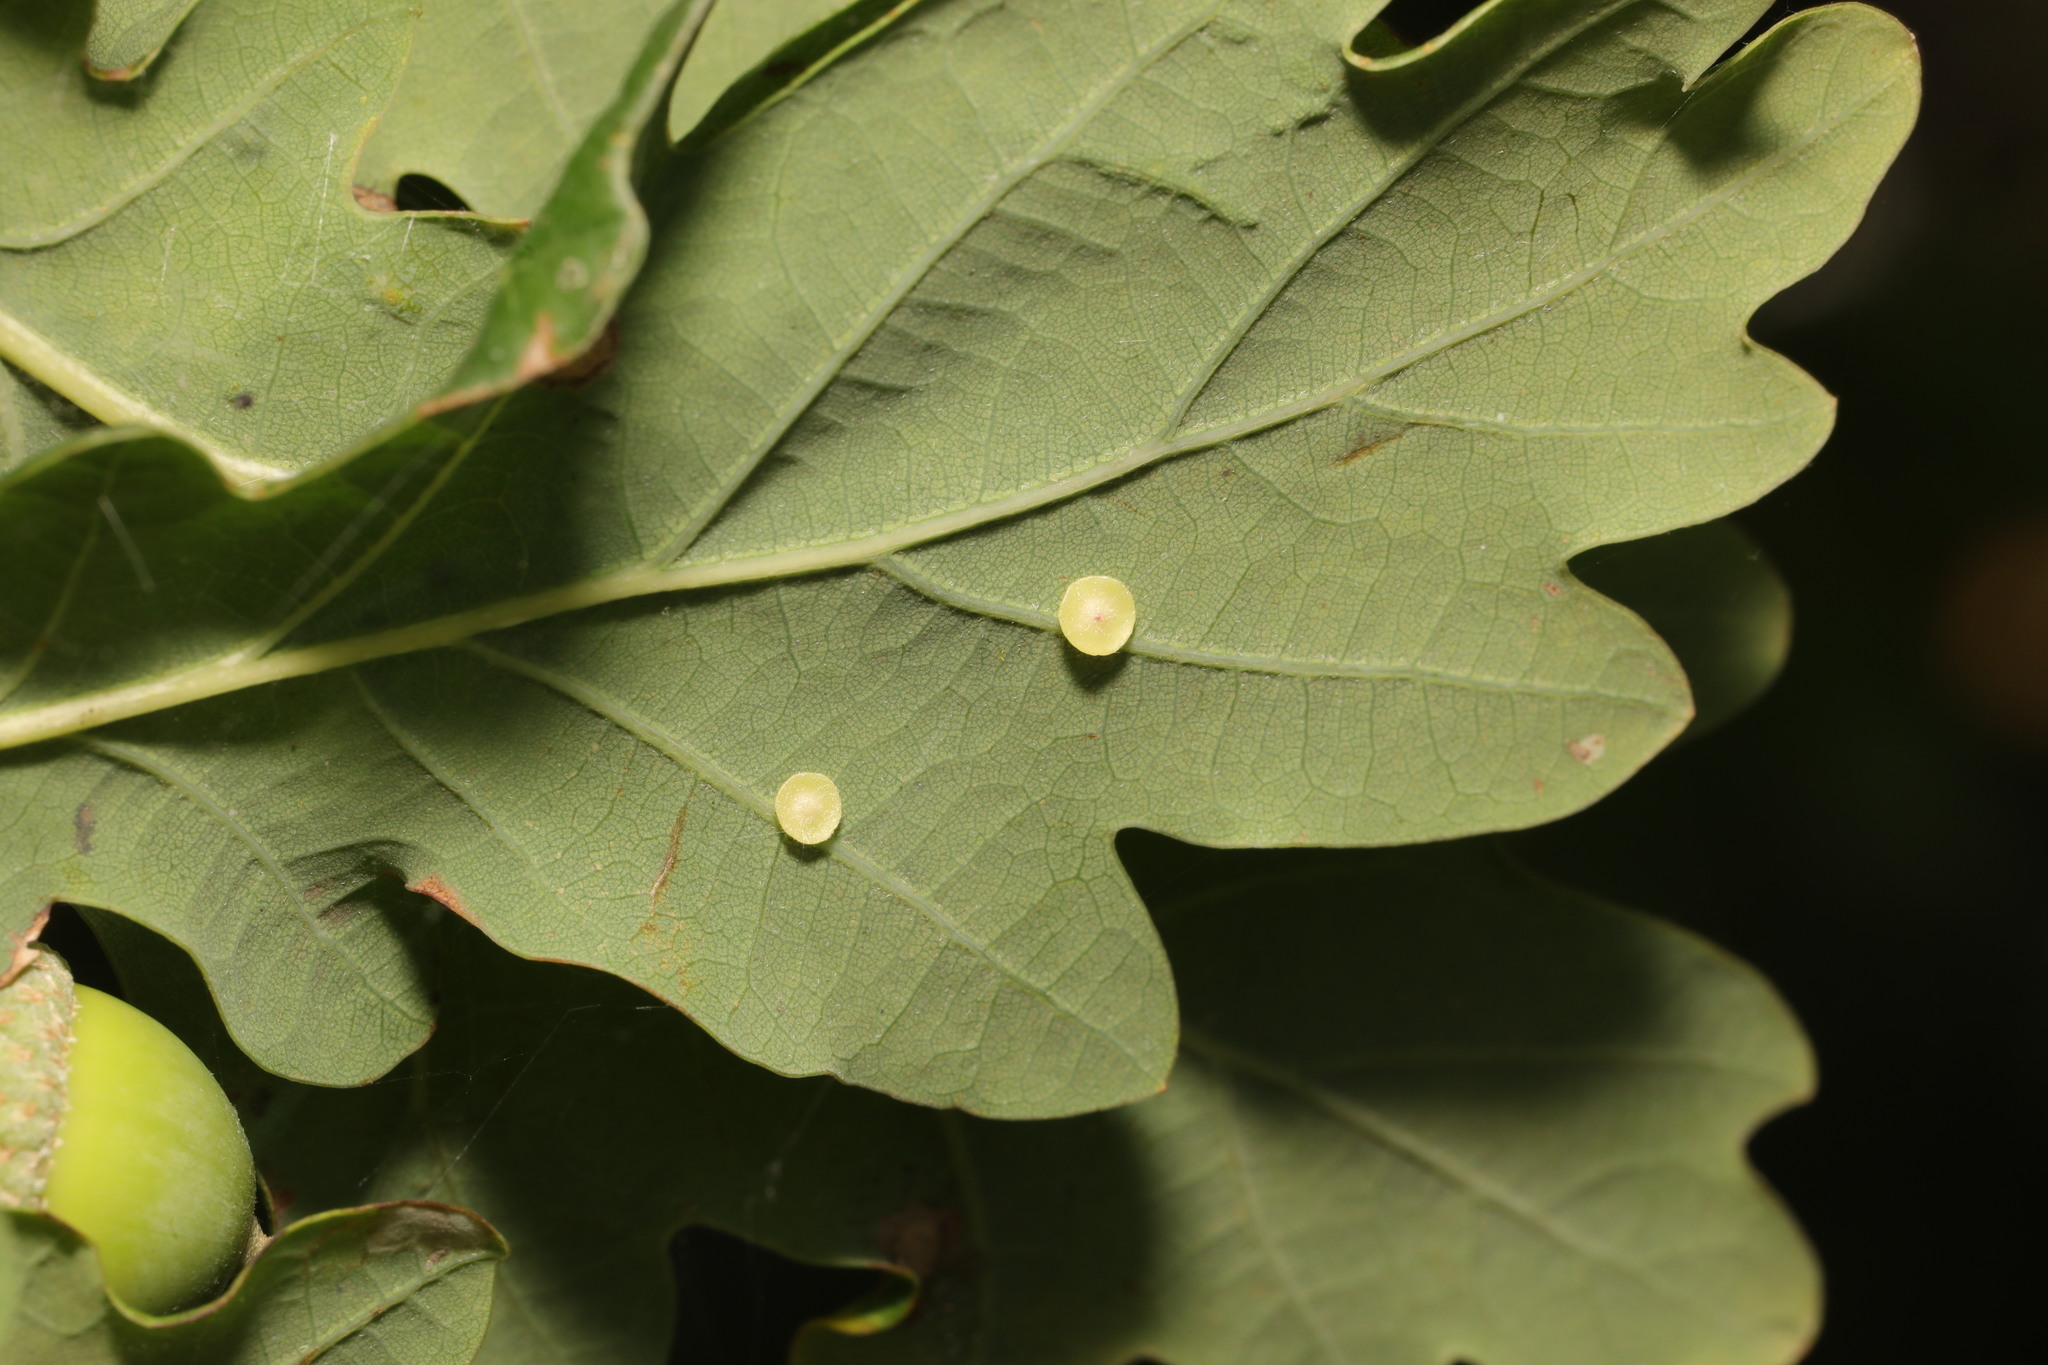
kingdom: Animalia
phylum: Arthropoda
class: Insecta
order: Hymenoptera
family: Cynipidae
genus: Neuroterus
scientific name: Neuroterus albipes
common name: Smooth spangle gall
